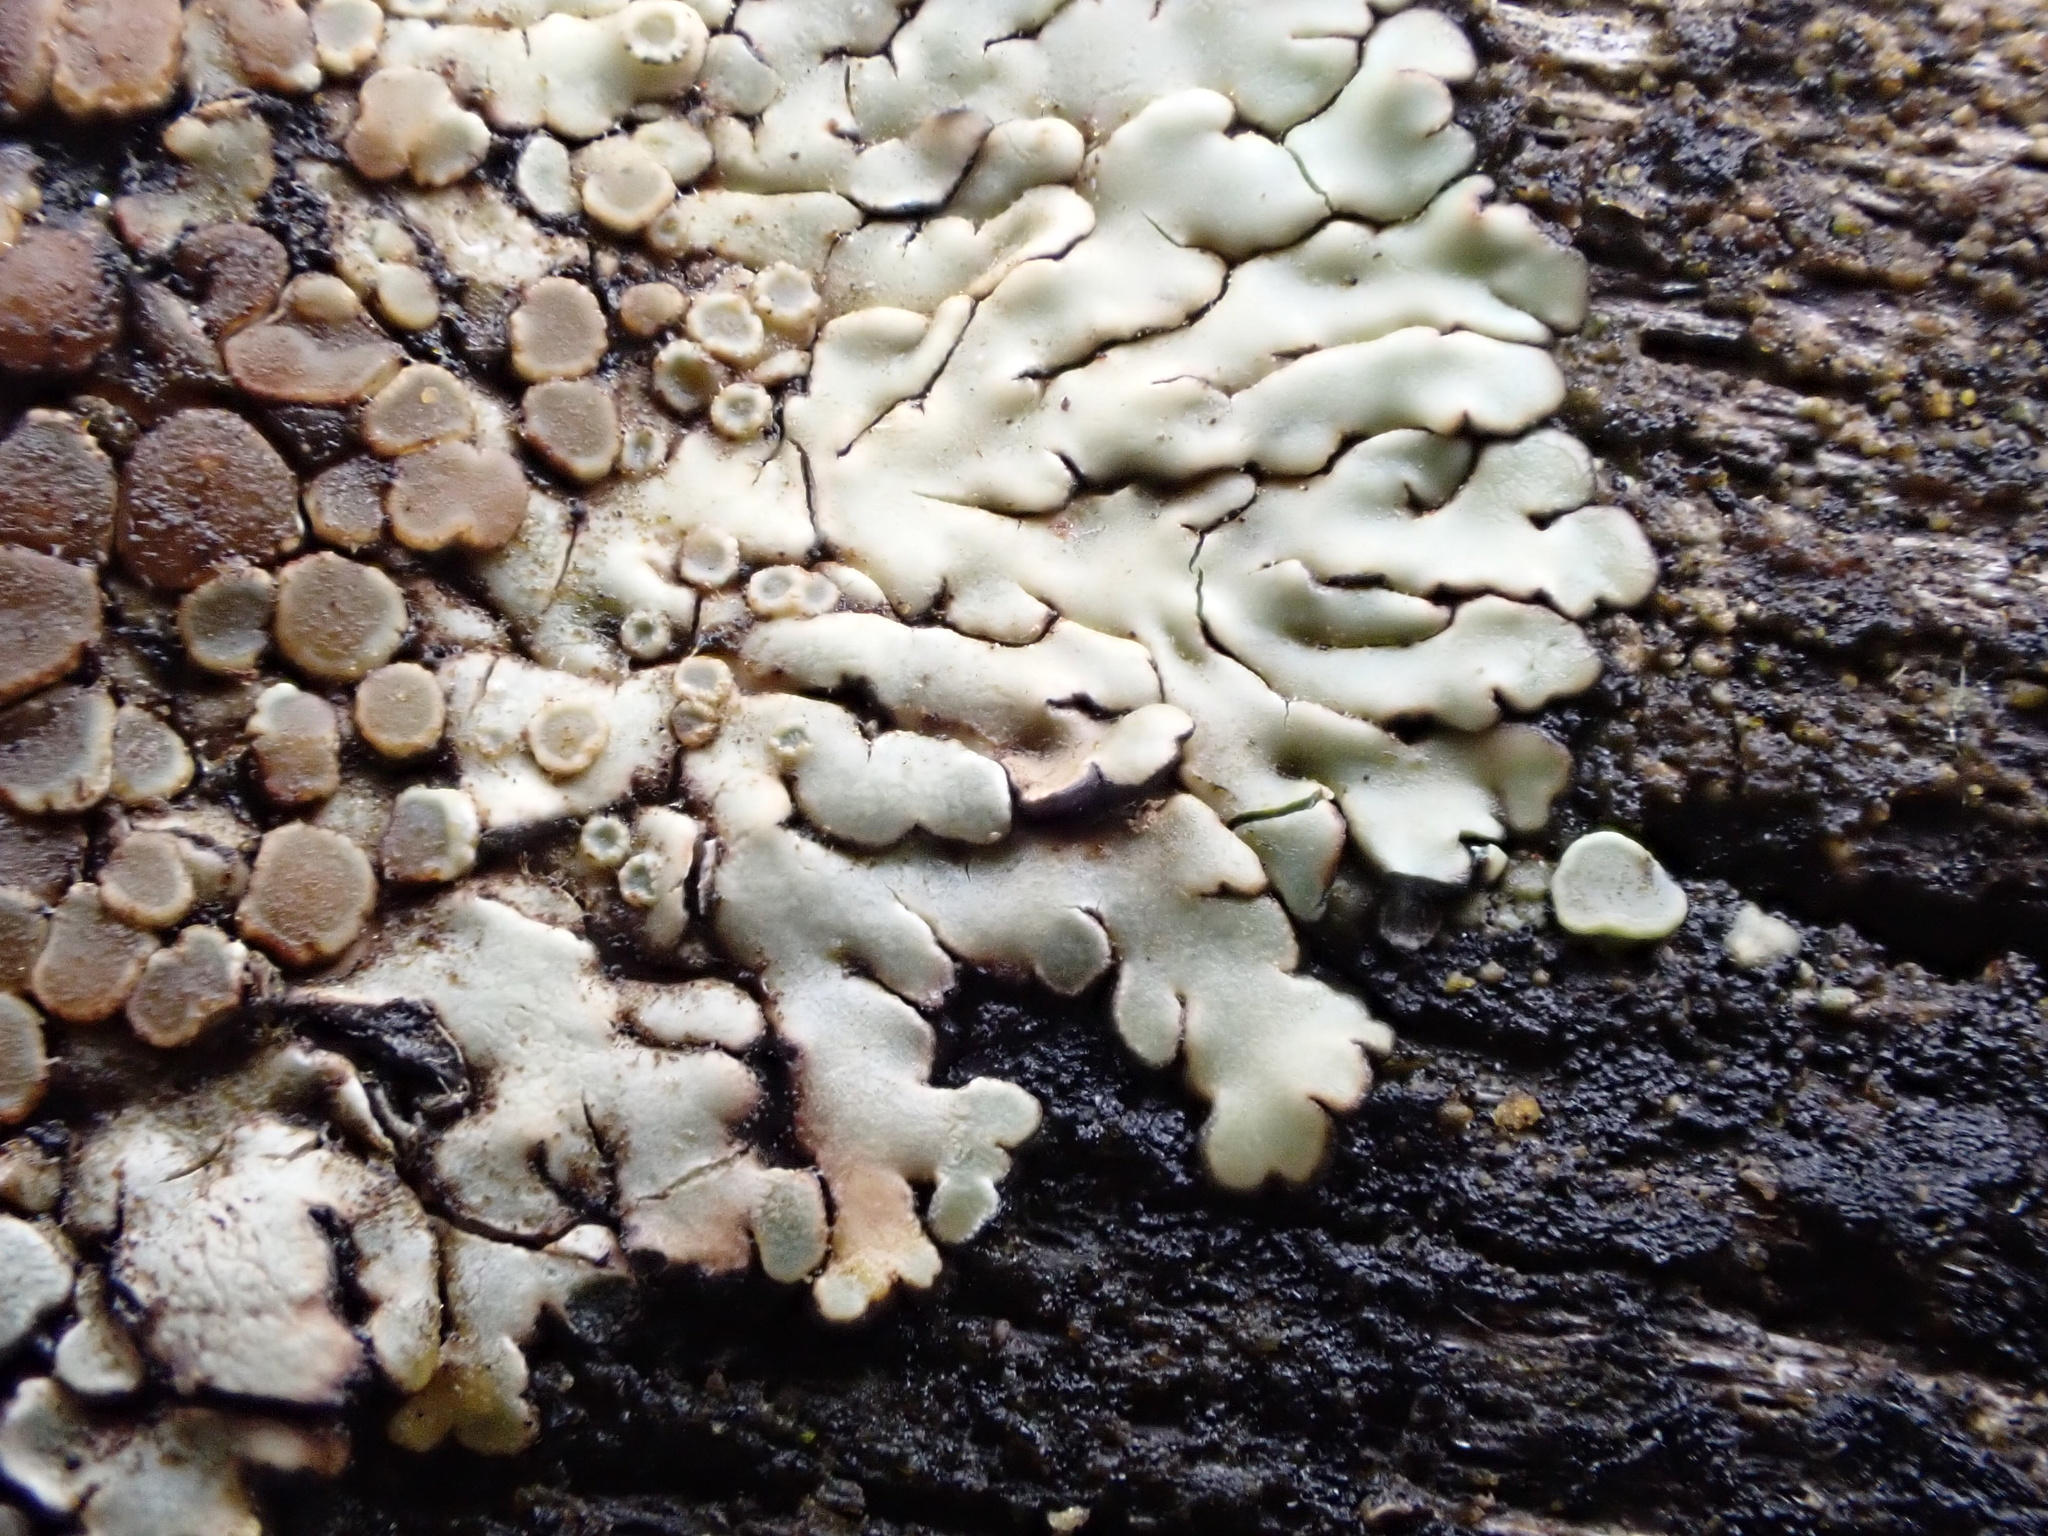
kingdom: Fungi
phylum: Ascomycota
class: Lecanoromycetes
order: Lecanorales
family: Lecanoraceae
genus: Protoparmeliopsis
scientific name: Protoparmeliopsis muralis
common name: Stonewall rim lichen
